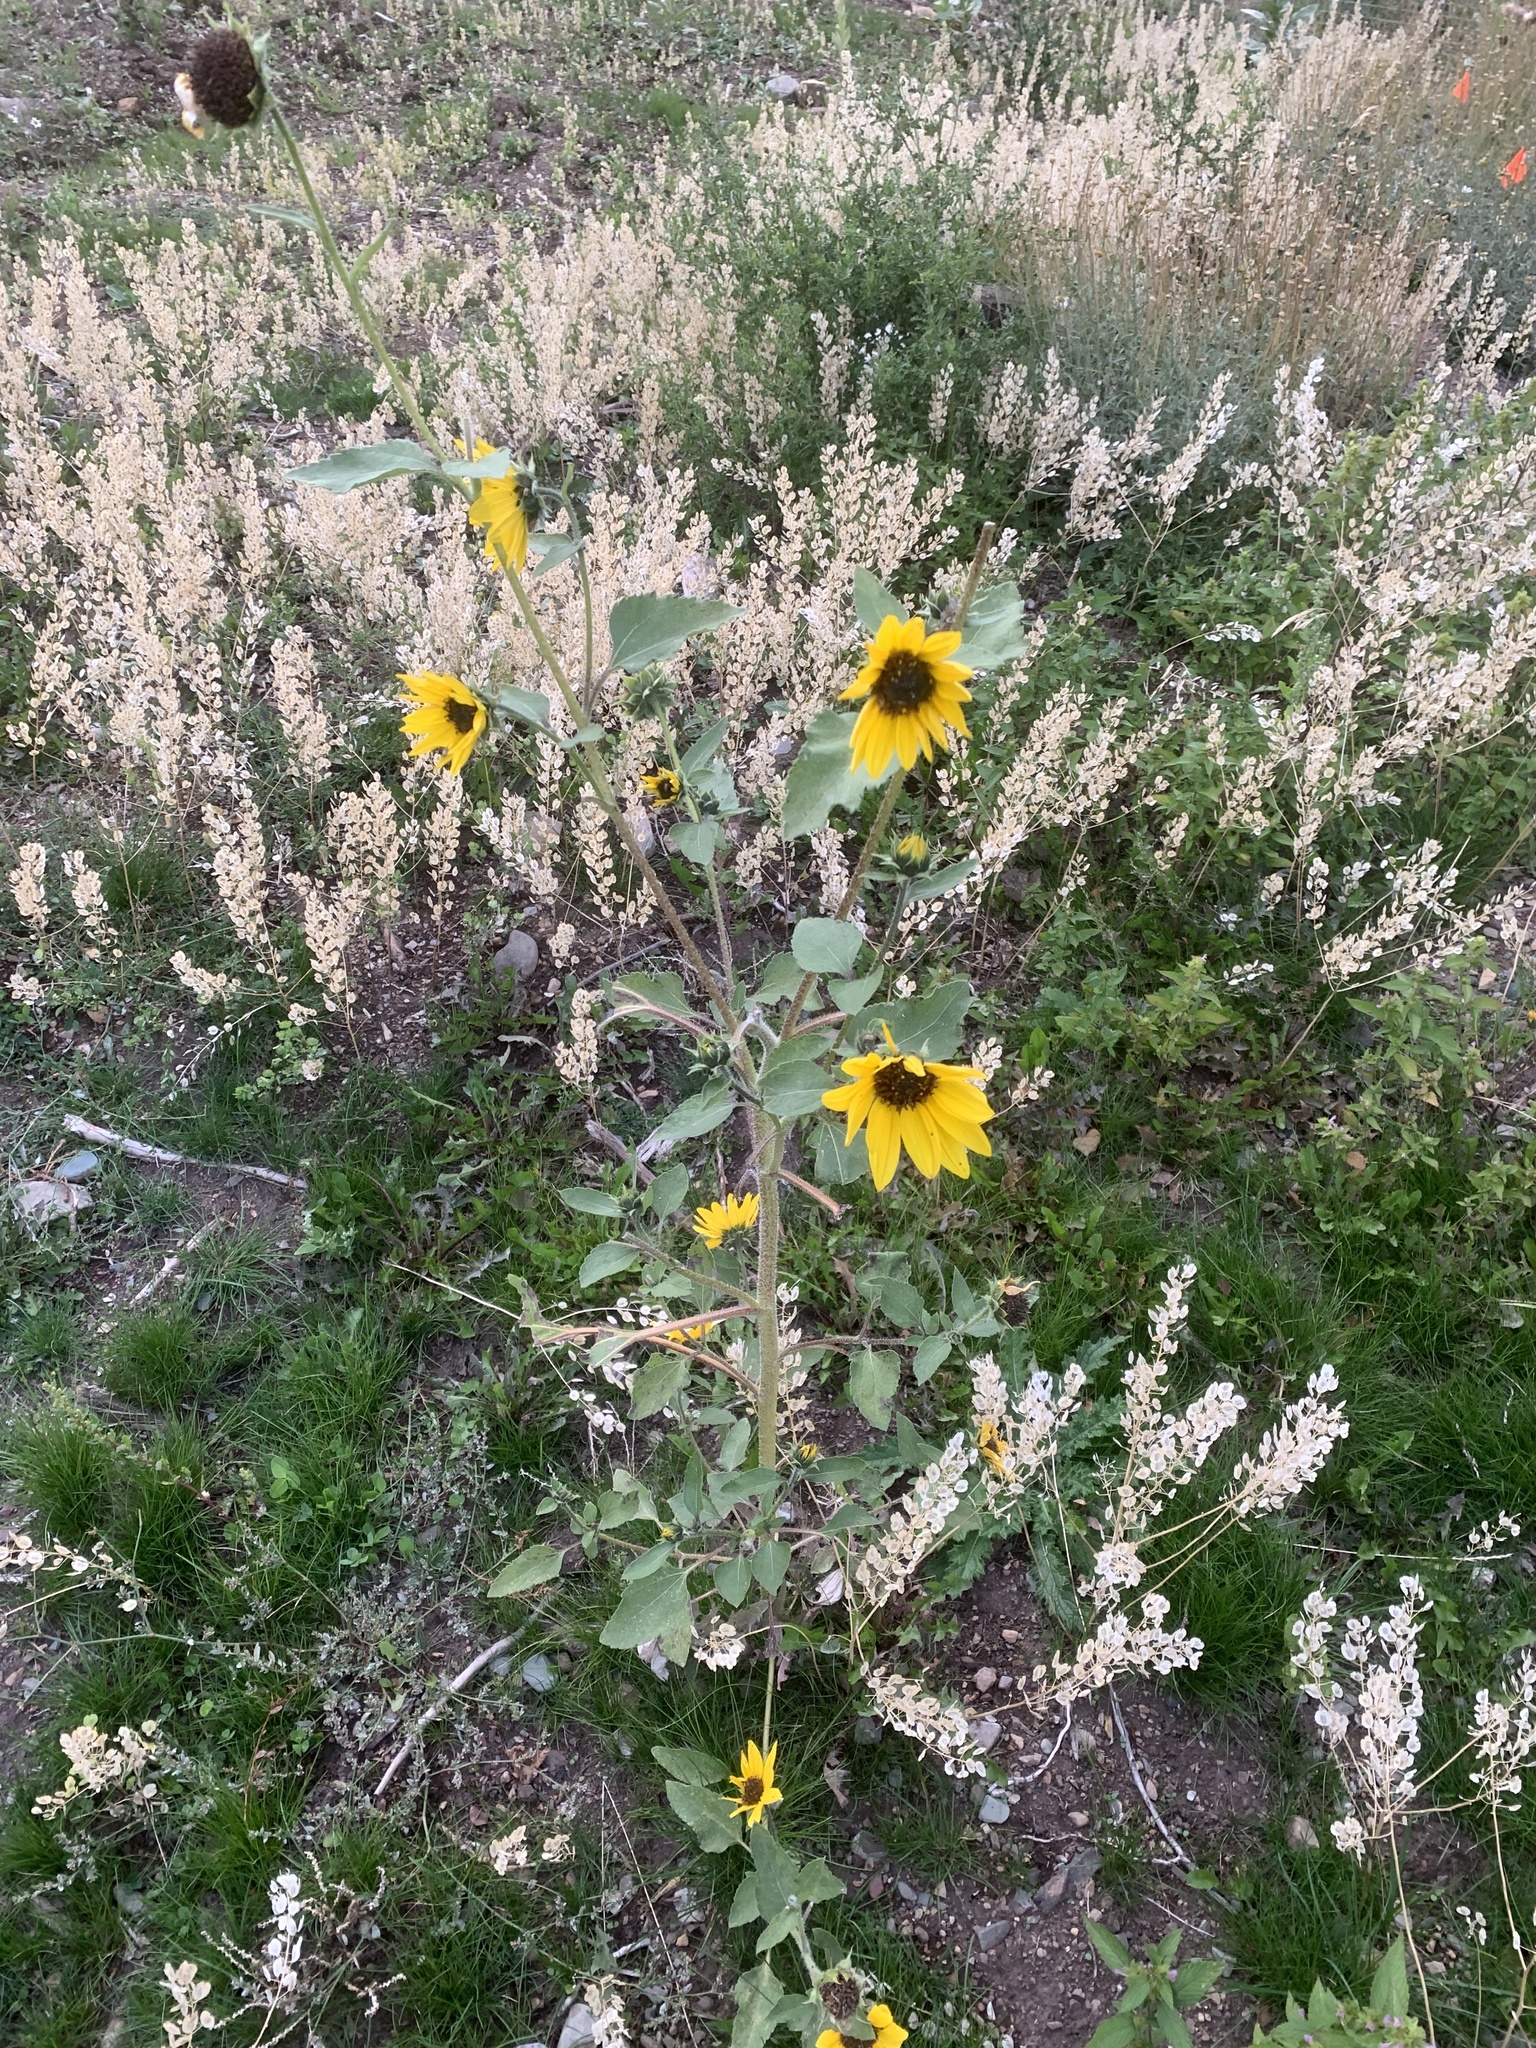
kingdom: Plantae
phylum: Tracheophyta
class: Magnoliopsida
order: Asterales
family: Asteraceae
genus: Helianthus
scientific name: Helianthus annuus
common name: Sunflower
